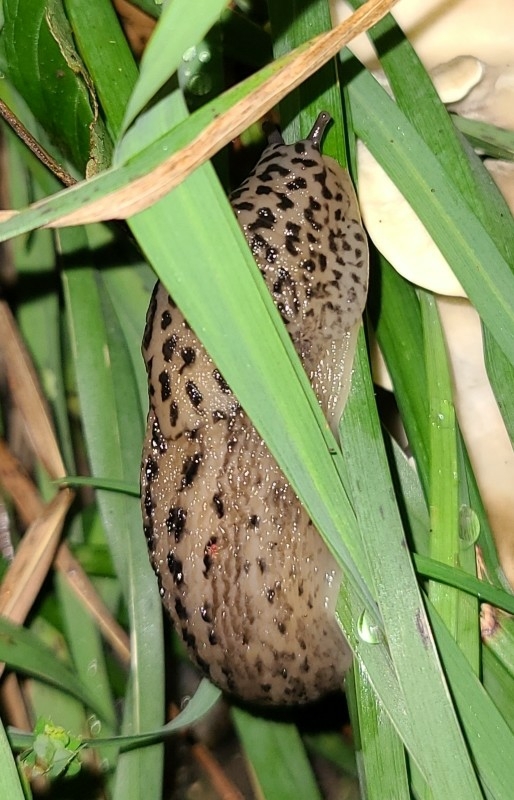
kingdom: Animalia
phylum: Mollusca
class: Gastropoda
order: Stylommatophora
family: Limacidae
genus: Limax
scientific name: Limax maximus
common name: Great grey slug
